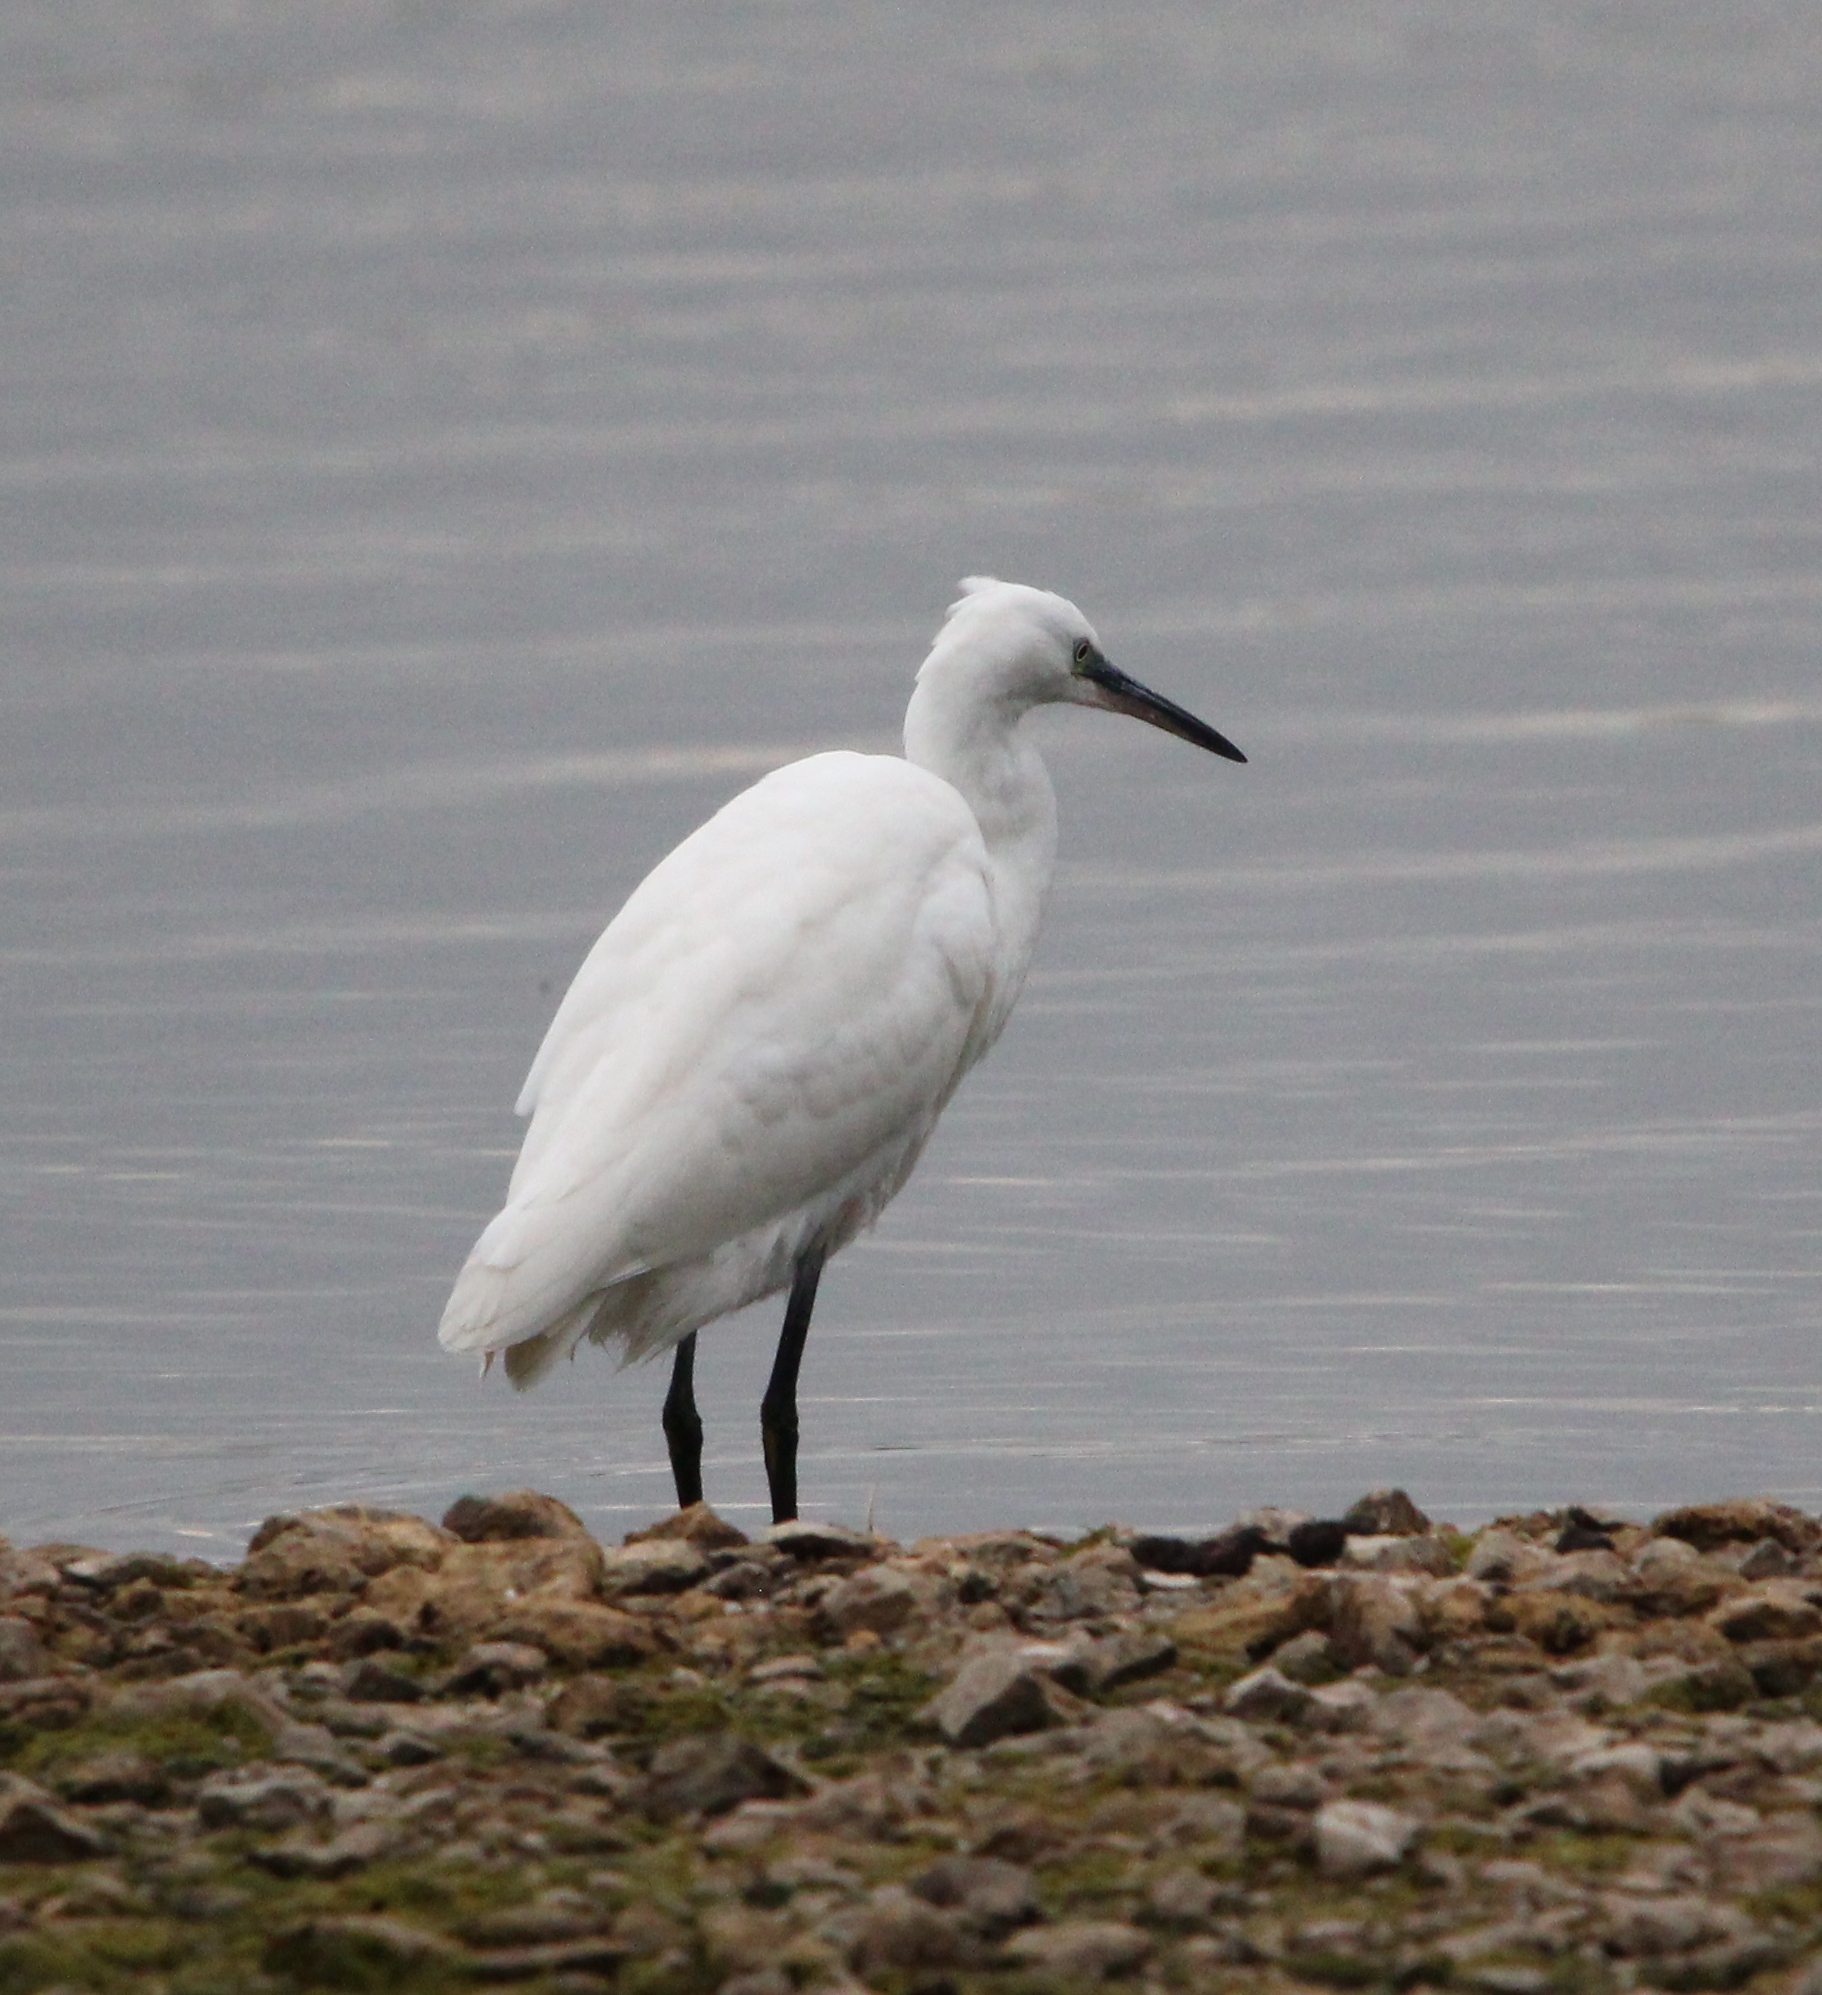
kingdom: Animalia
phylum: Chordata
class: Aves
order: Pelecaniformes
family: Ardeidae
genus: Egretta
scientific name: Egretta garzetta
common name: Little egret
